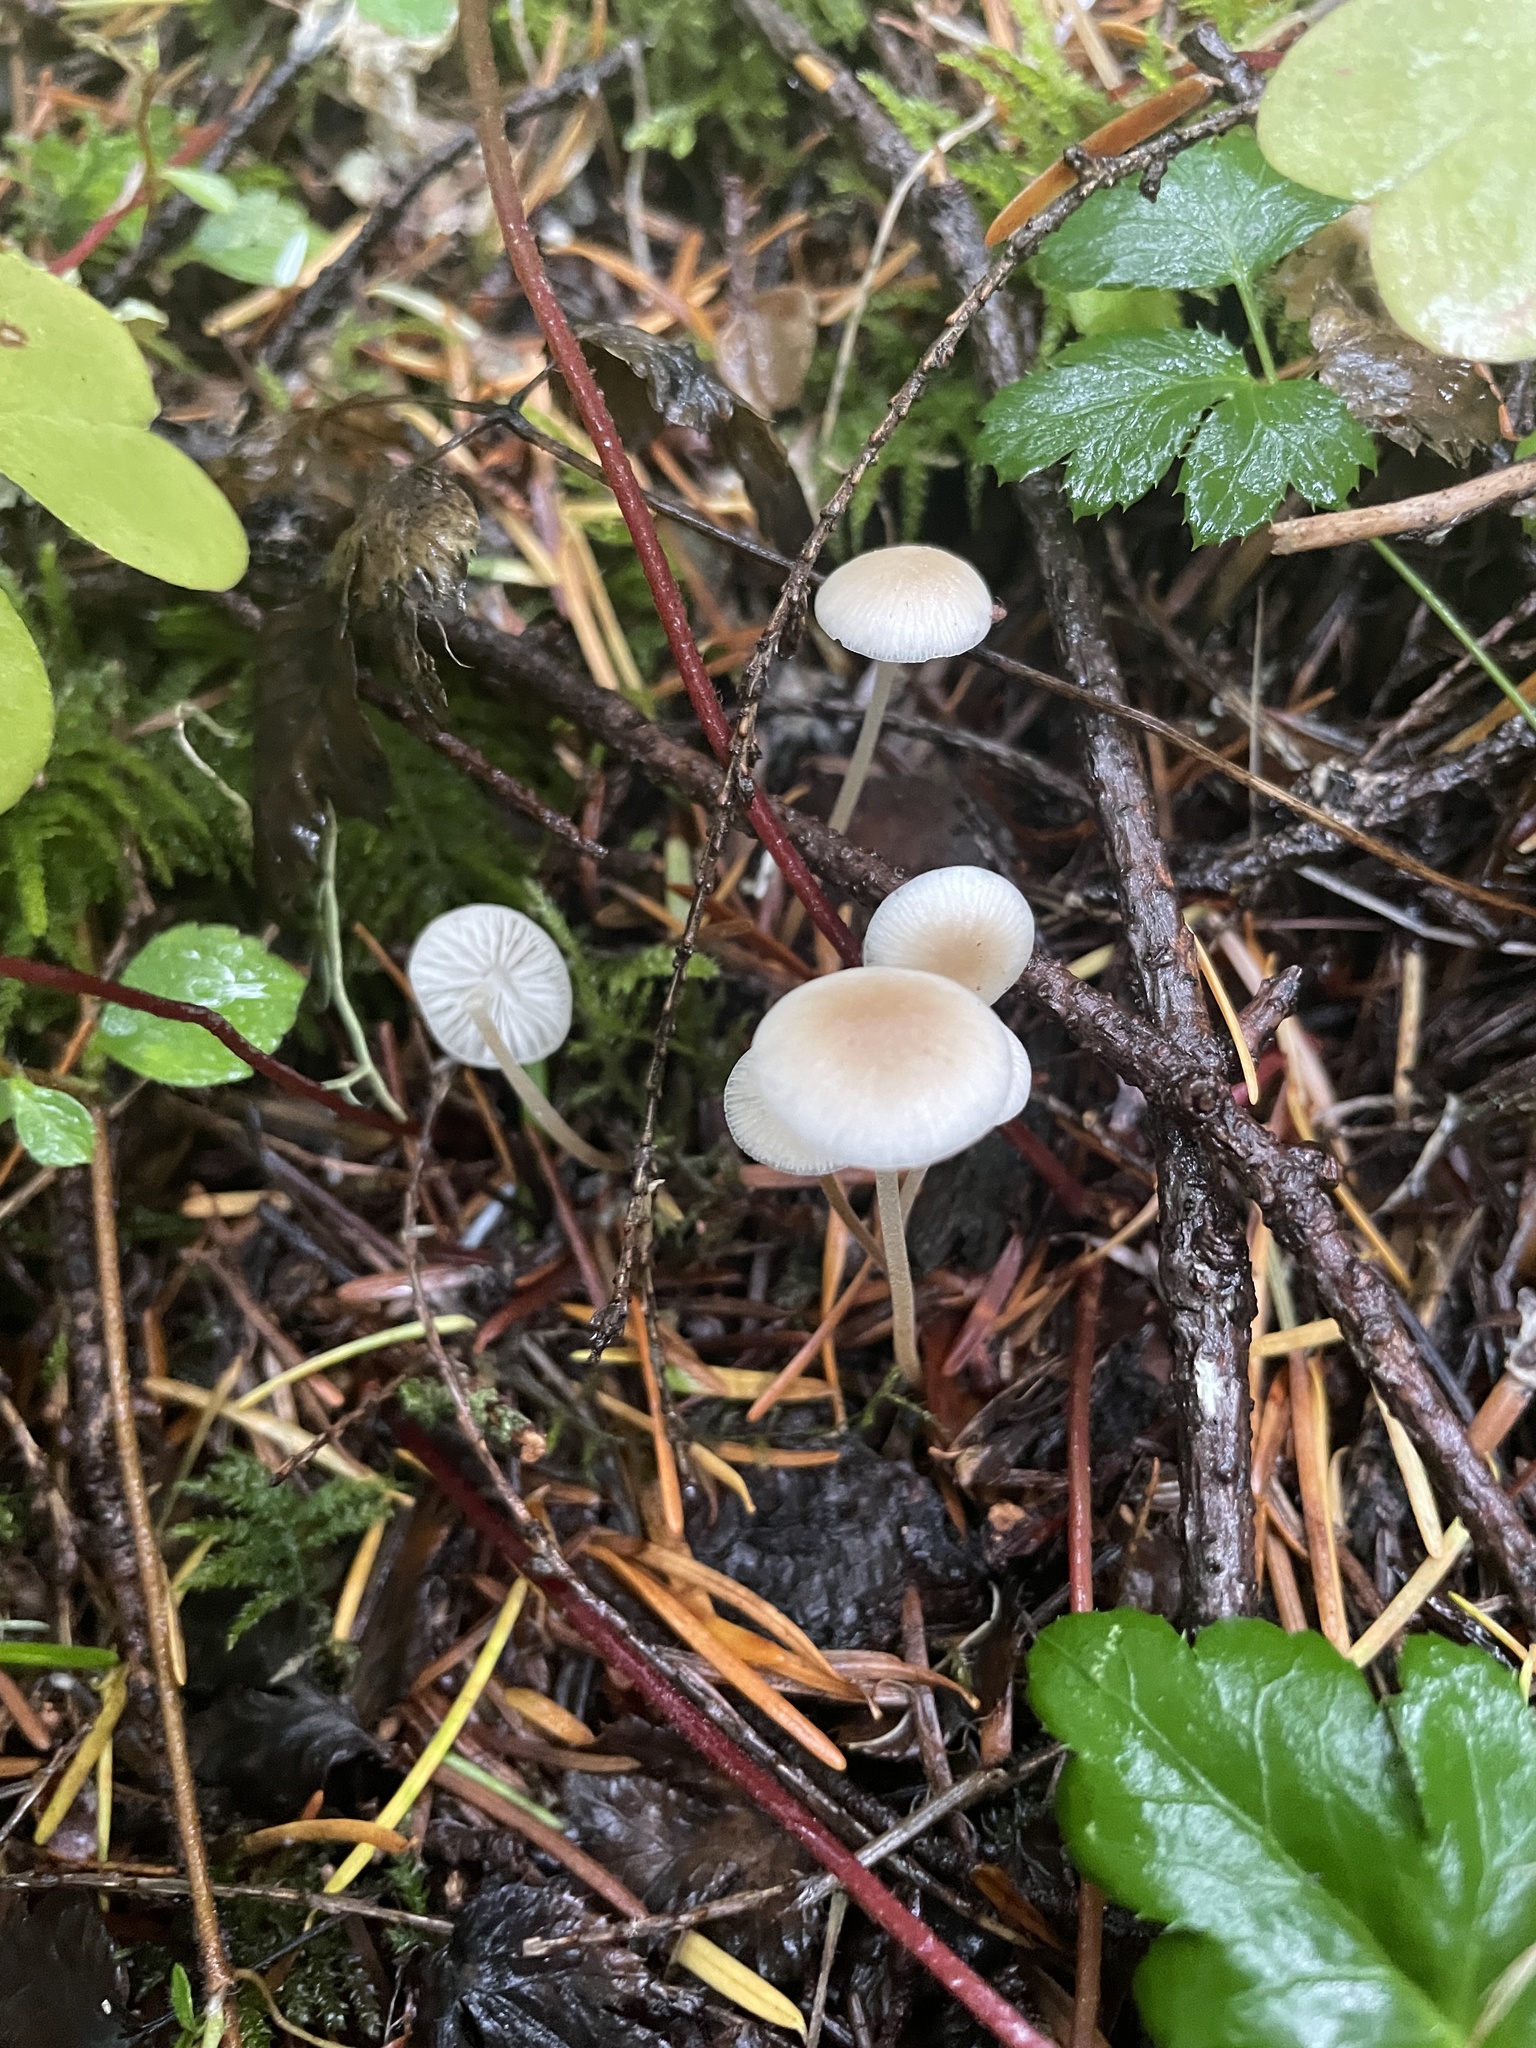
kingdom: Fungi
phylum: Basidiomycota
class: Agaricomycetes
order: Agaricales
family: Physalacriaceae
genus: Strobilurus
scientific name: Strobilurus trullisatus
